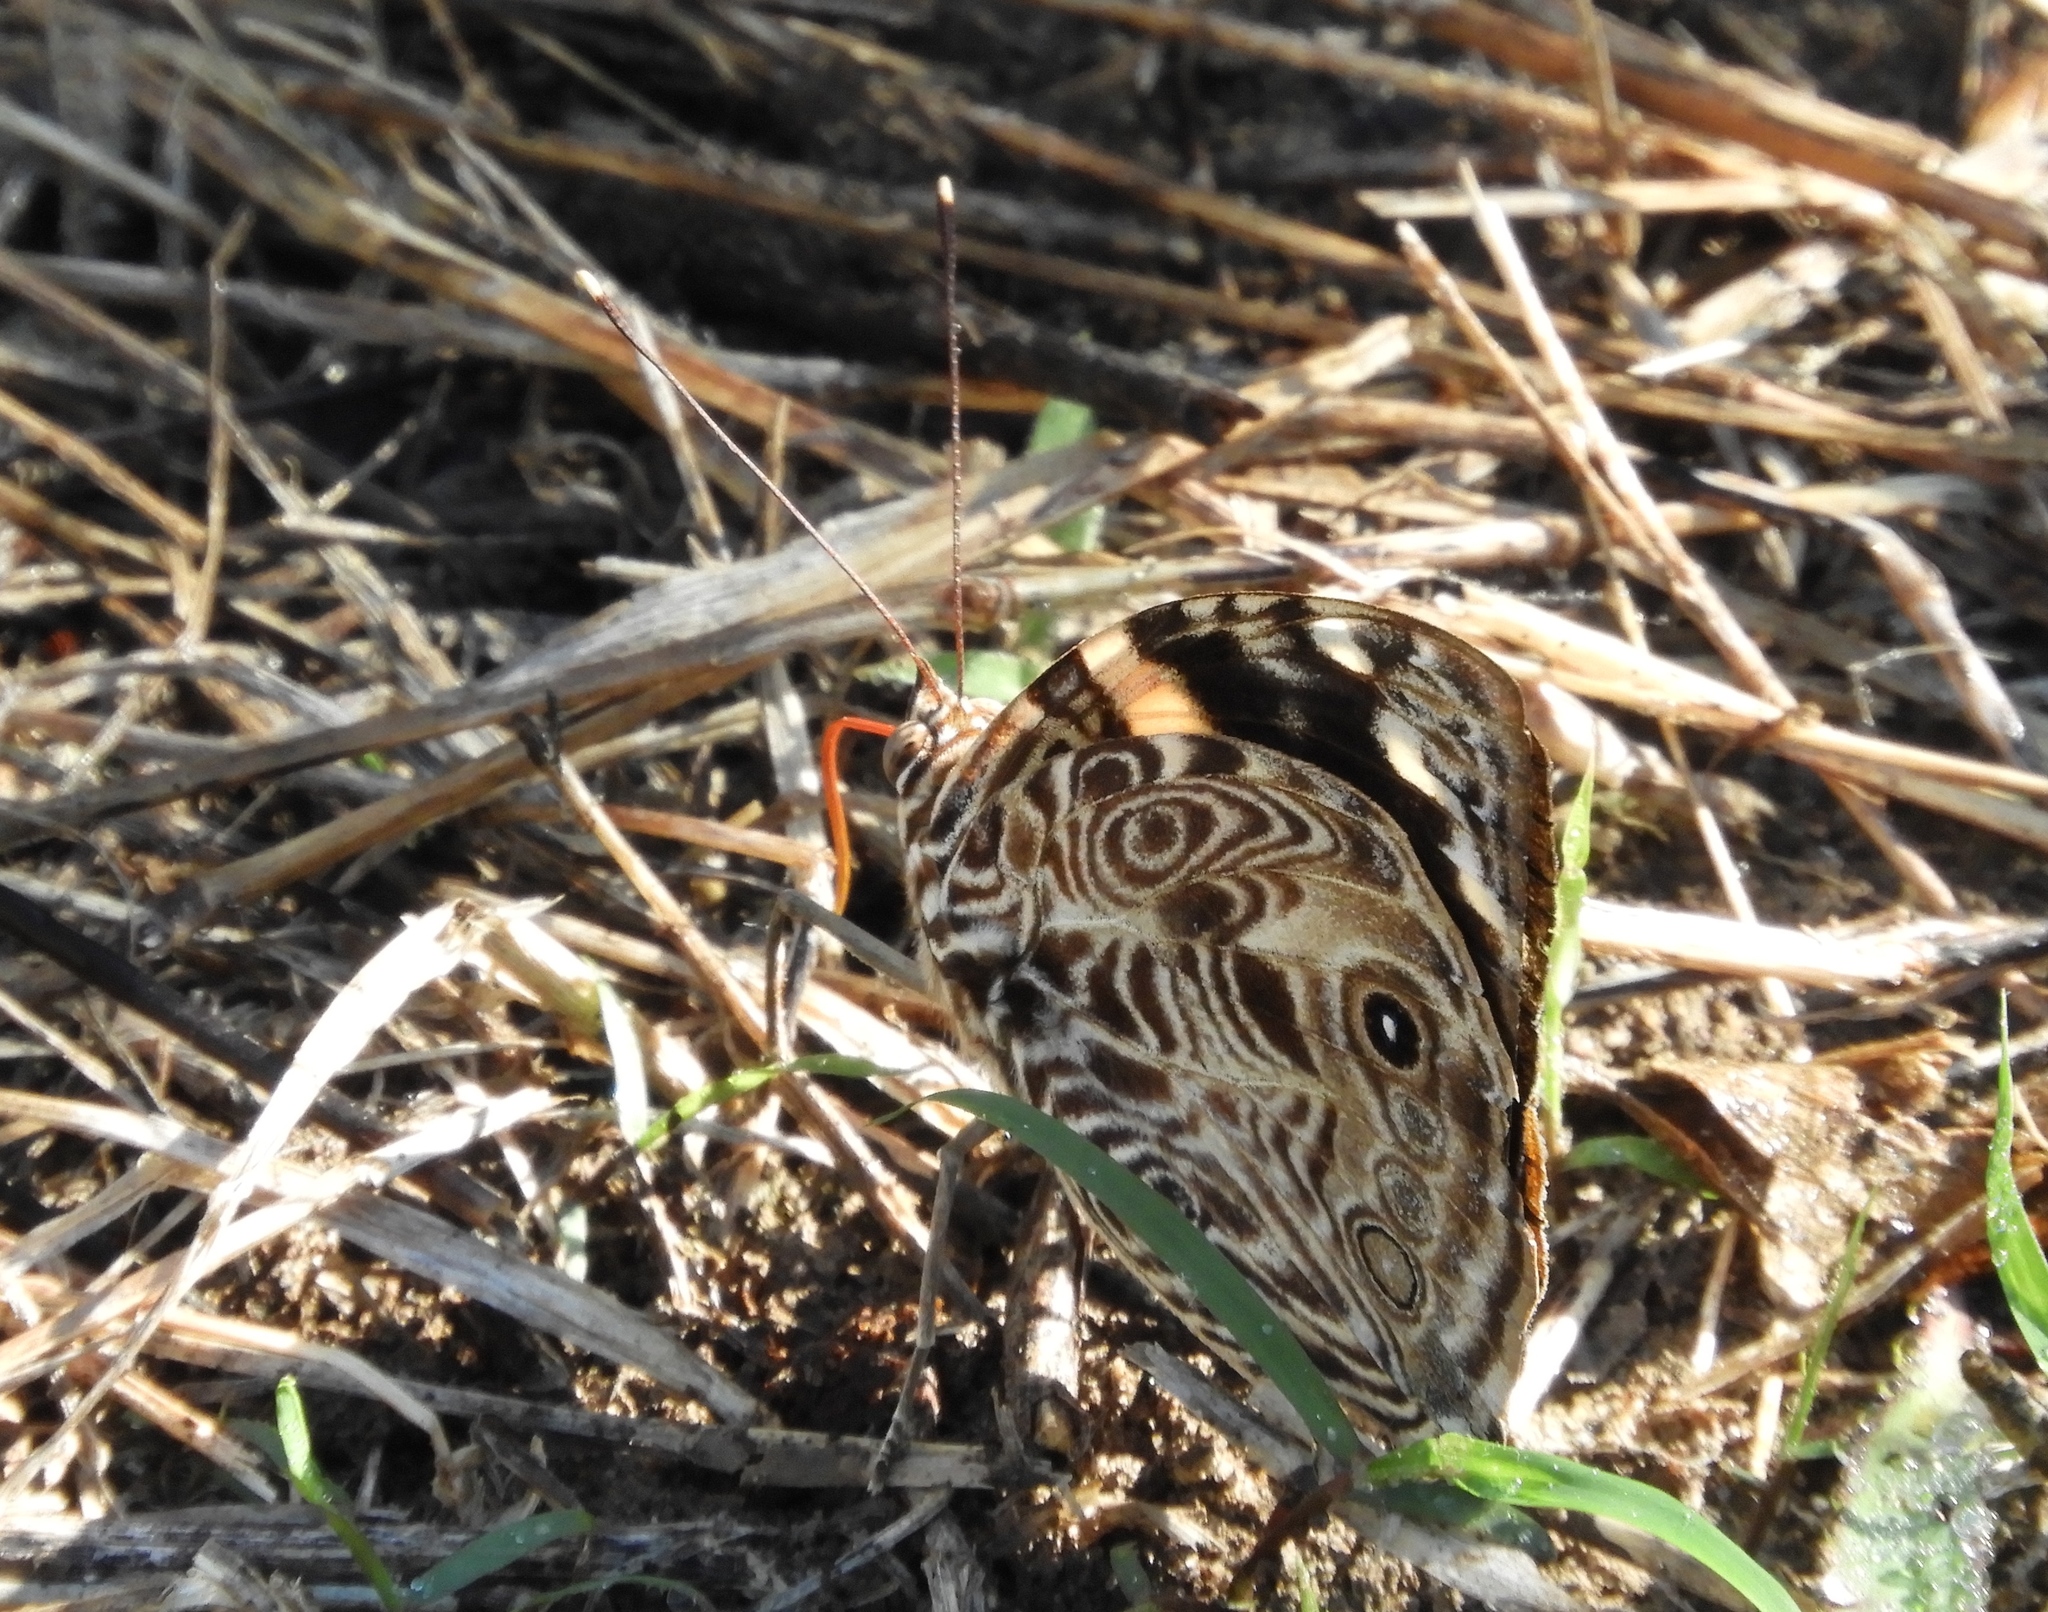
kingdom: Animalia
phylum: Arthropoda
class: Insecta
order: Lepidoptera
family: Nymphalidae
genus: Smyrna
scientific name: Smyrna blomfildia
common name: Blomfild's beauty
